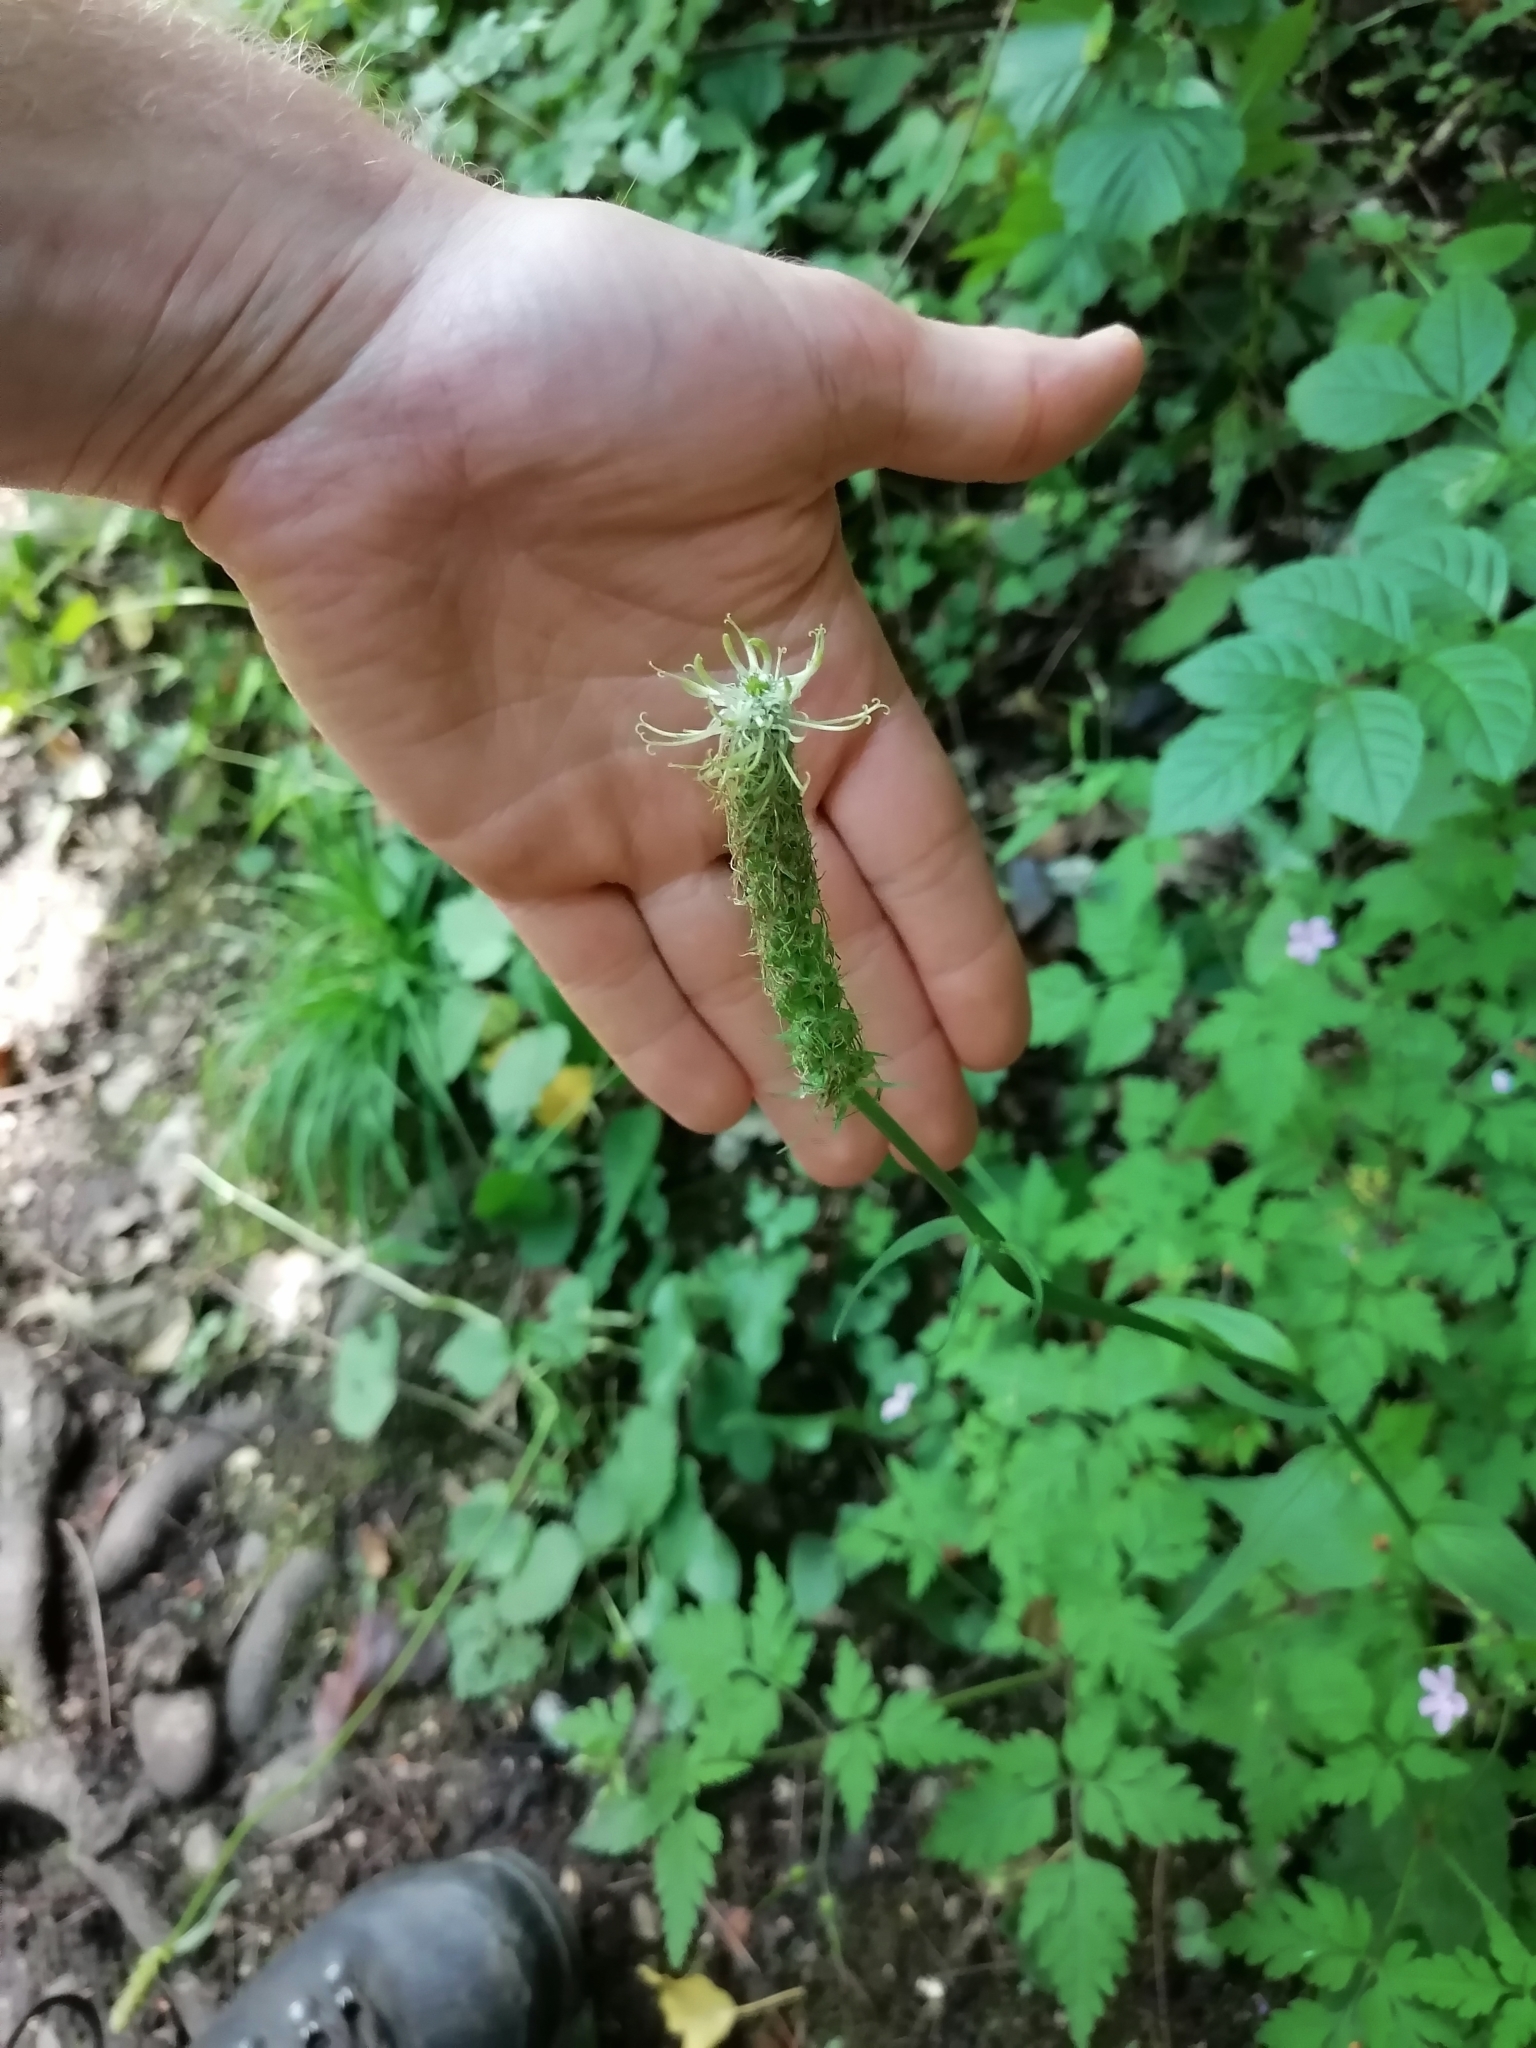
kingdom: Plantae
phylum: Tracheophyta
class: Magnoliopsida
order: Asterales
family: Campanulaceae
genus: Phyteuma
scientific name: Phyteuma spicatum
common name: Spiked rampion
